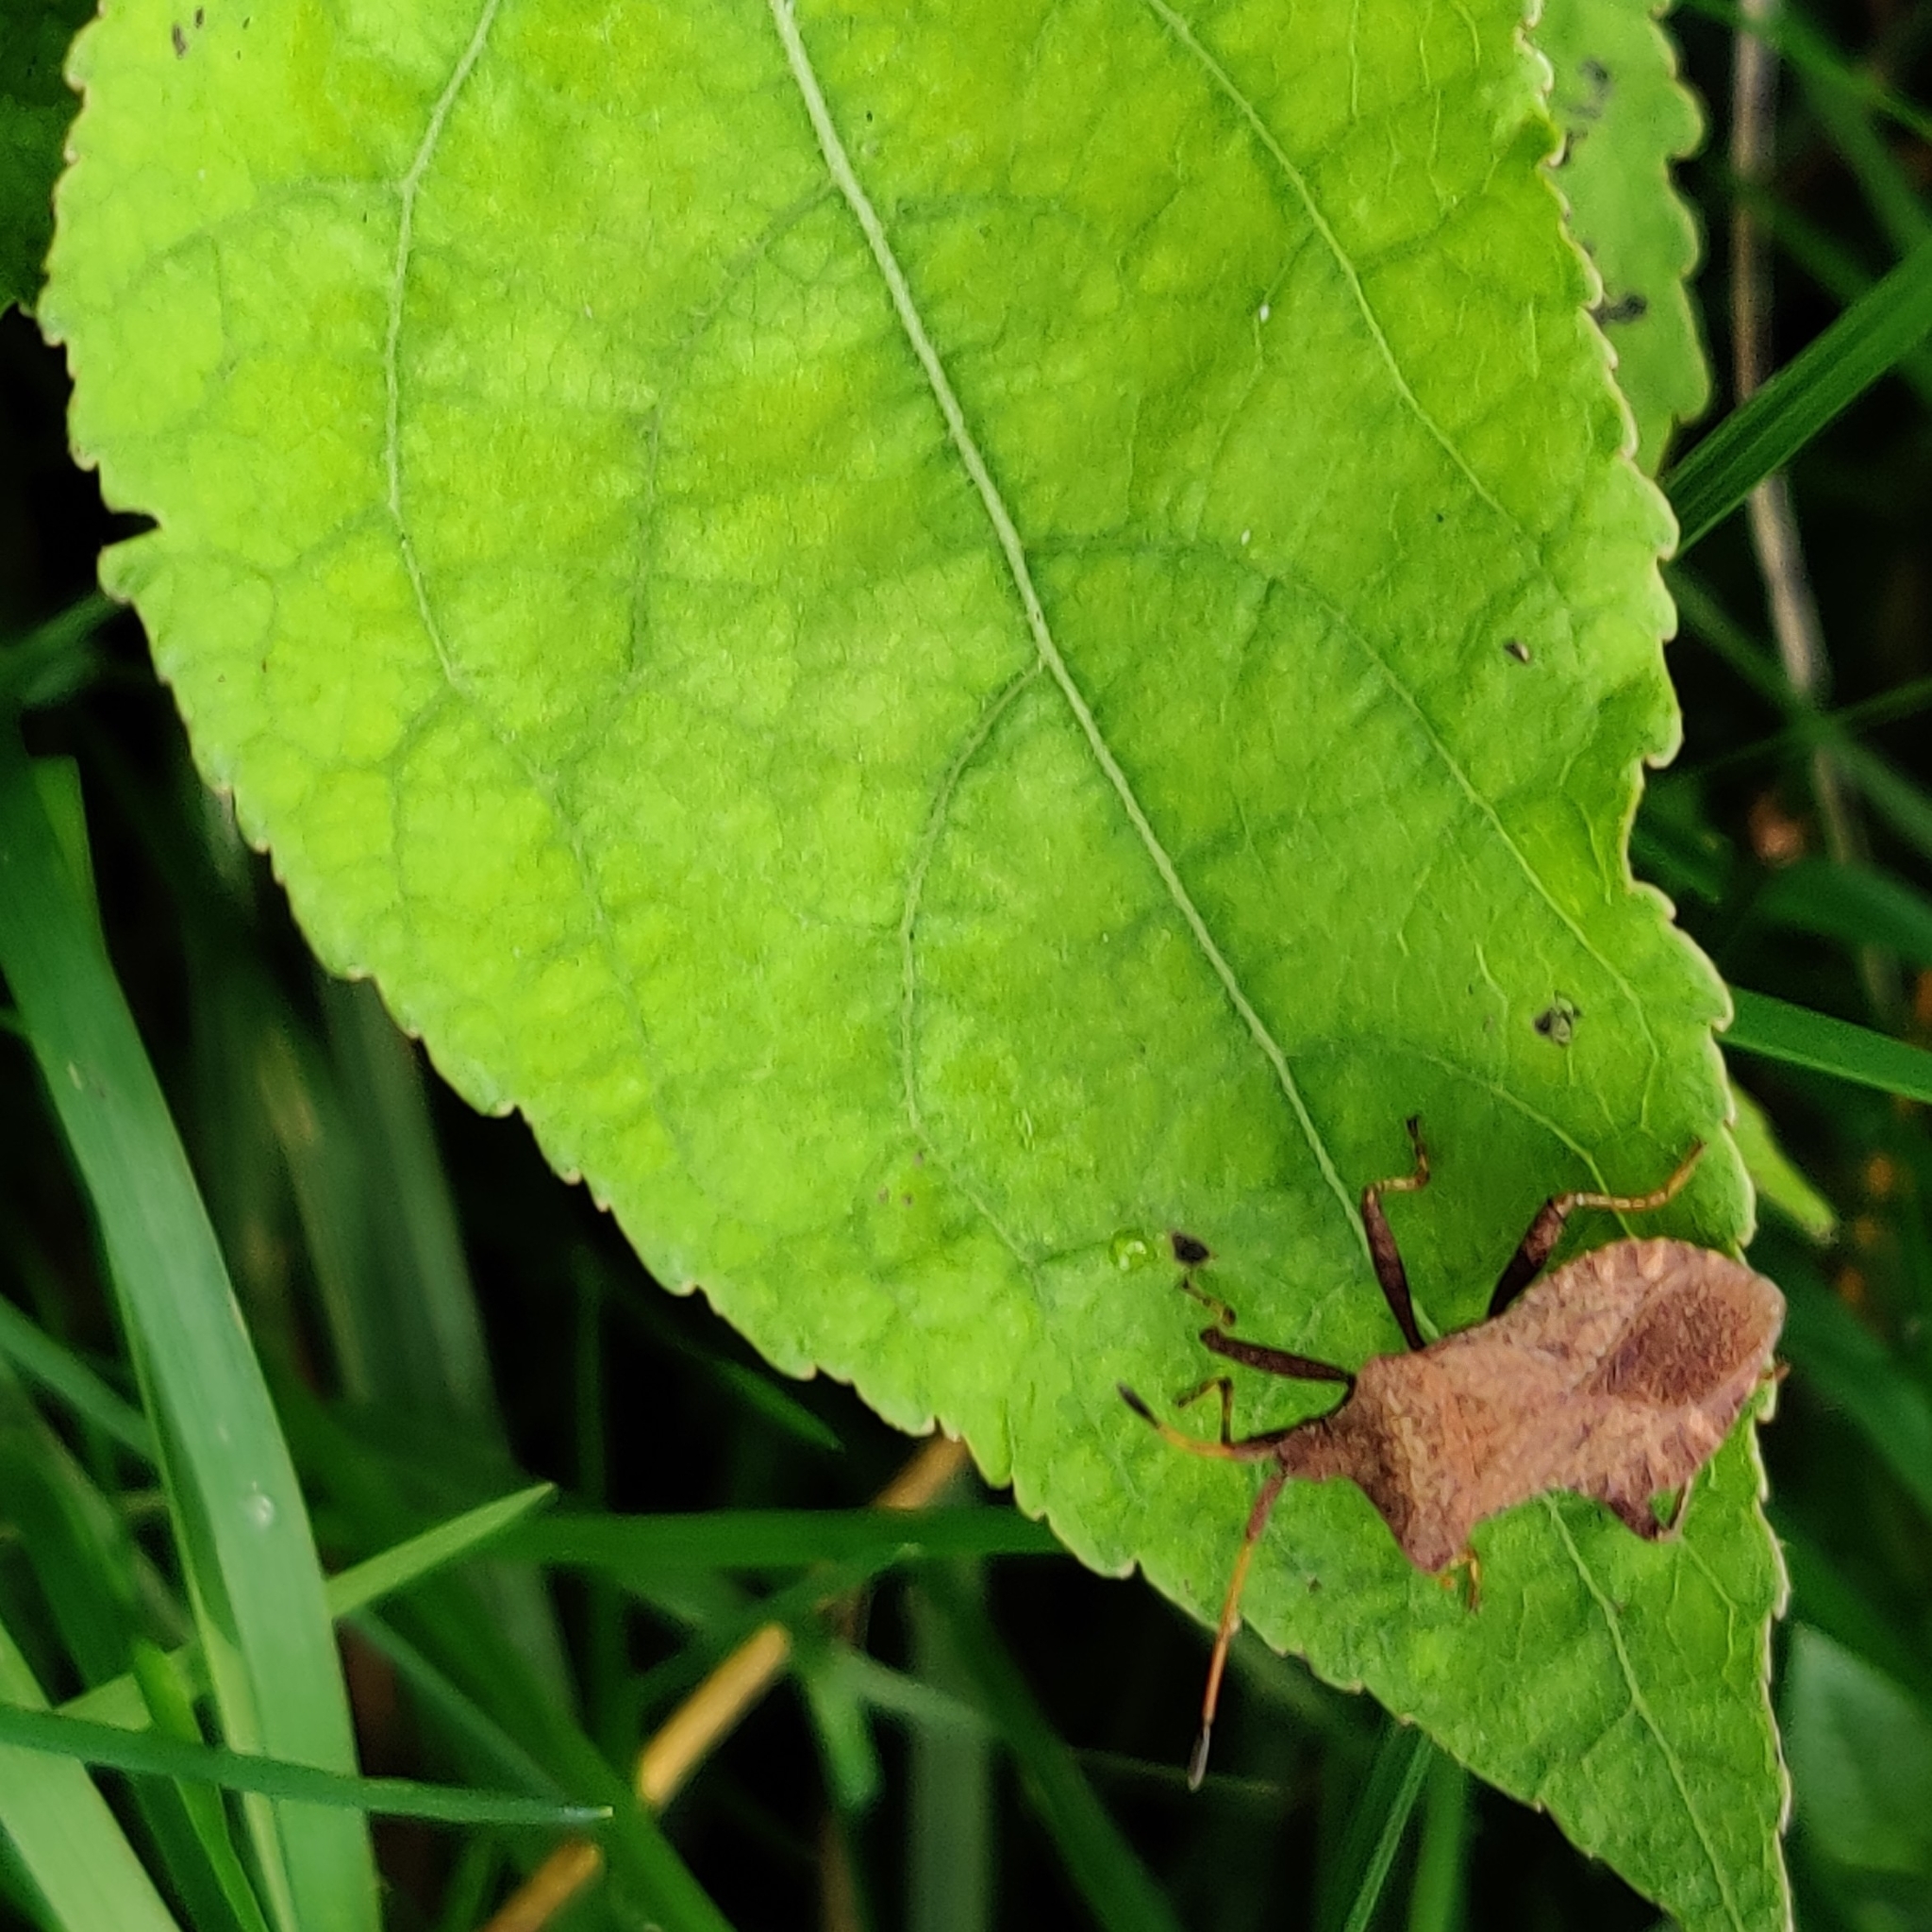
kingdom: Animalia
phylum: Arthropoda
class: Insecta
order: Hemiptera
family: Coreidae
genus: Coreus
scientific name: Coreus marginatus
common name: Dock bug
